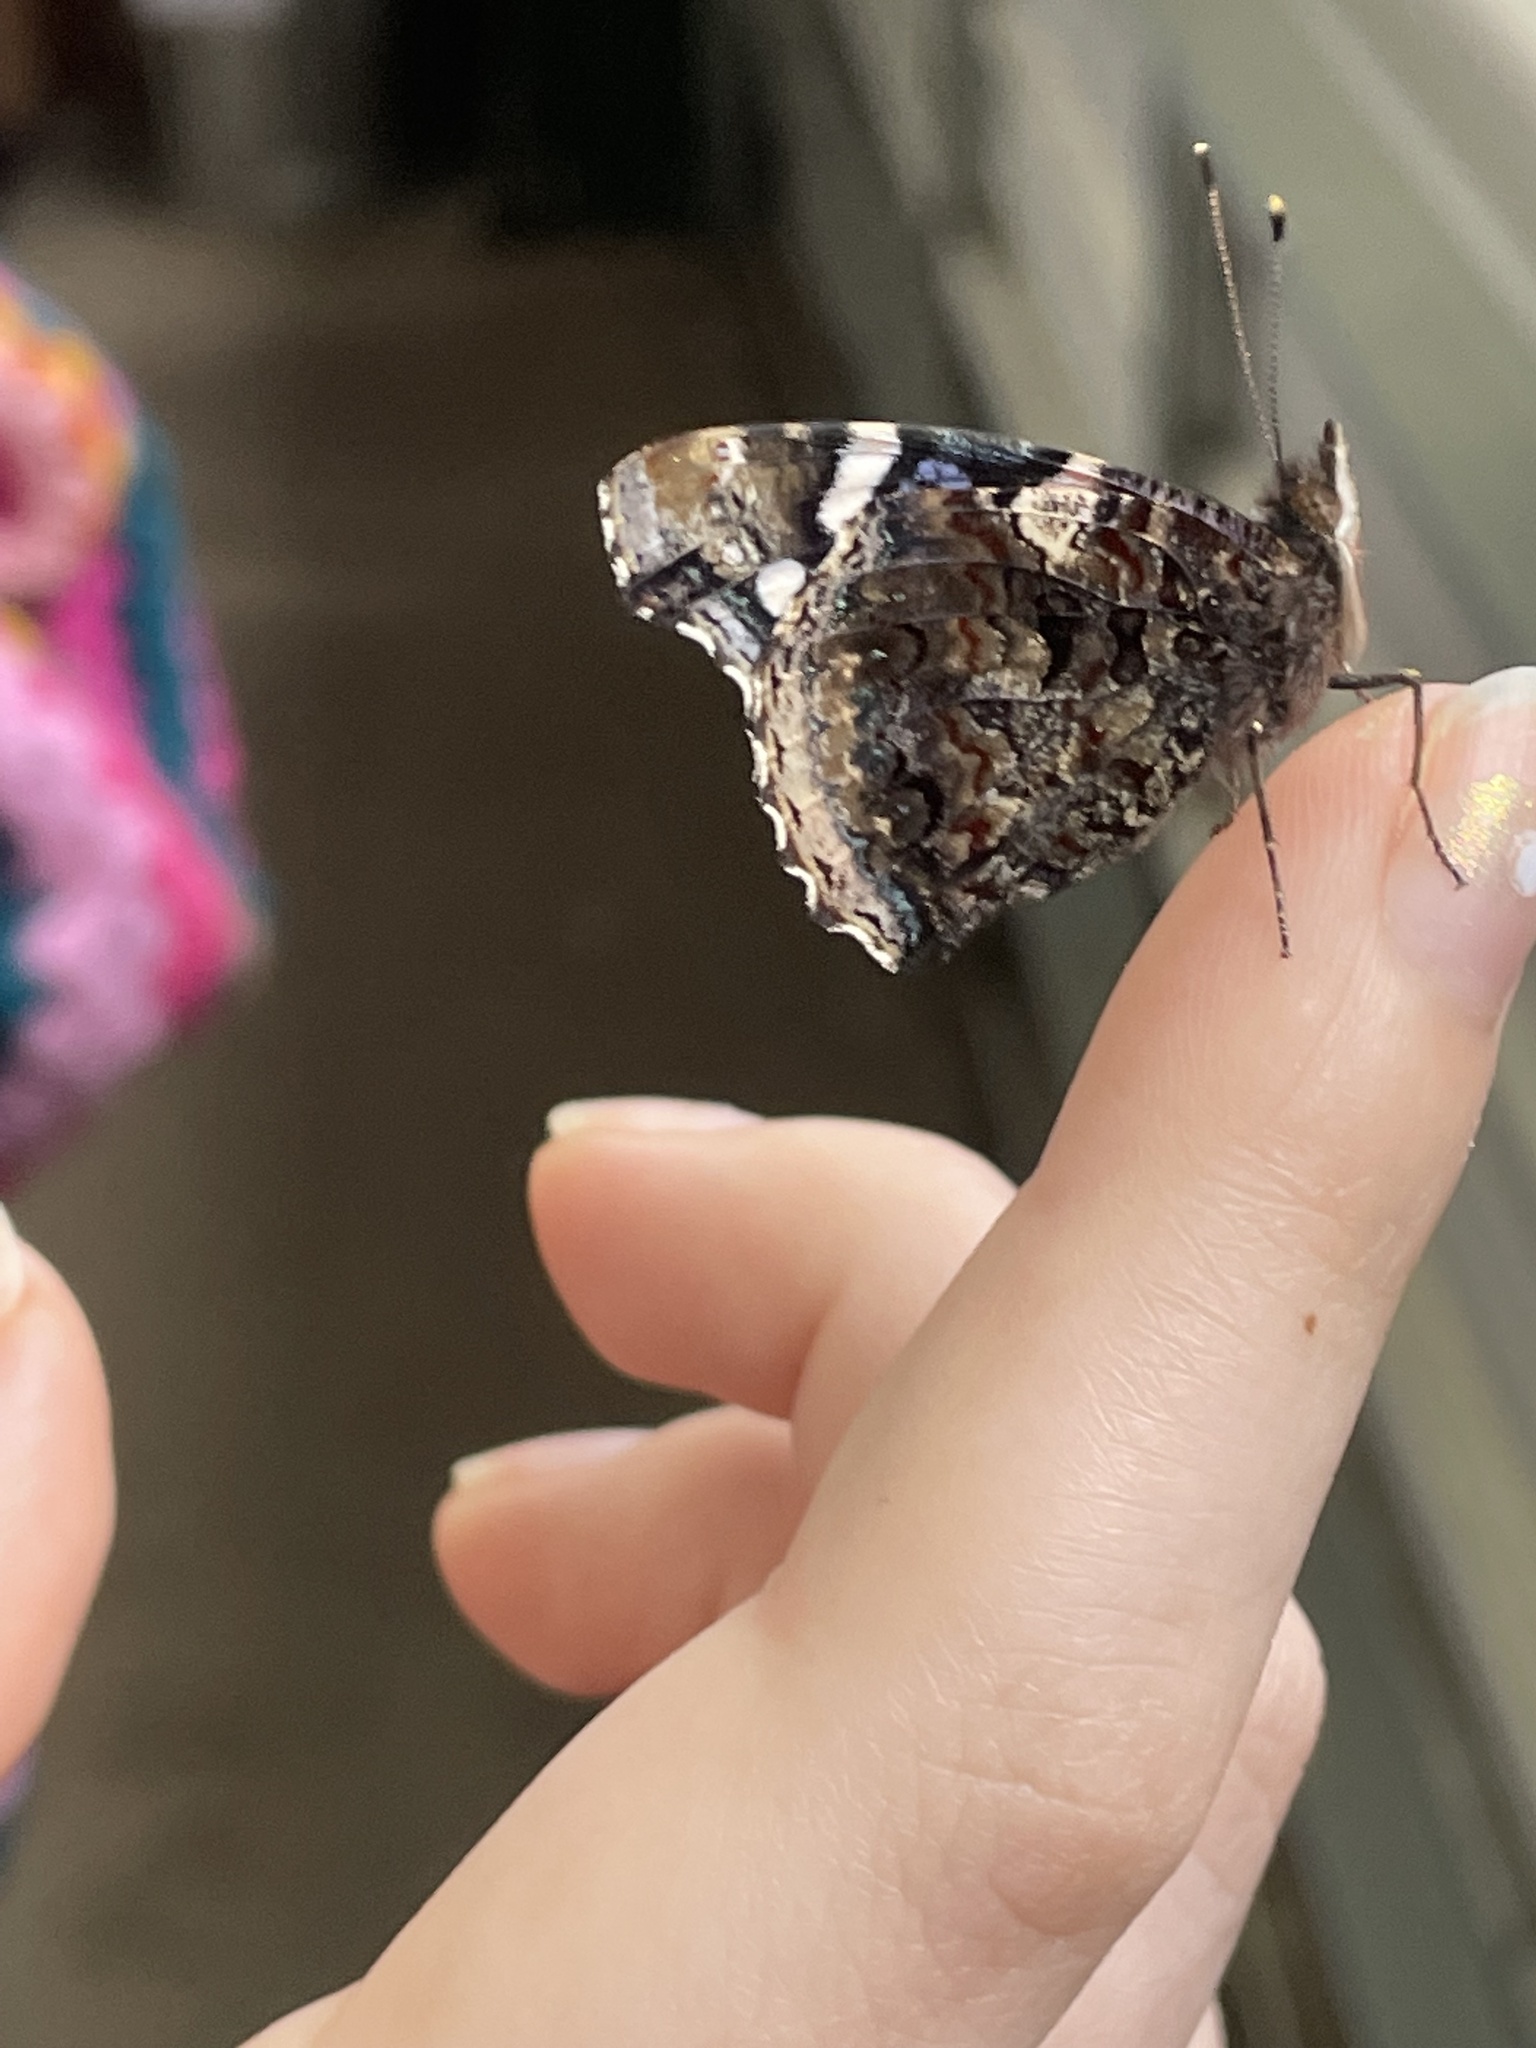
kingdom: Animalia
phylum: Arthropoda
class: Insecta
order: Lepidoptera
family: Nymphalidae
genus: Vanessa
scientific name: Vanessa atalanta
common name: Red admiral
